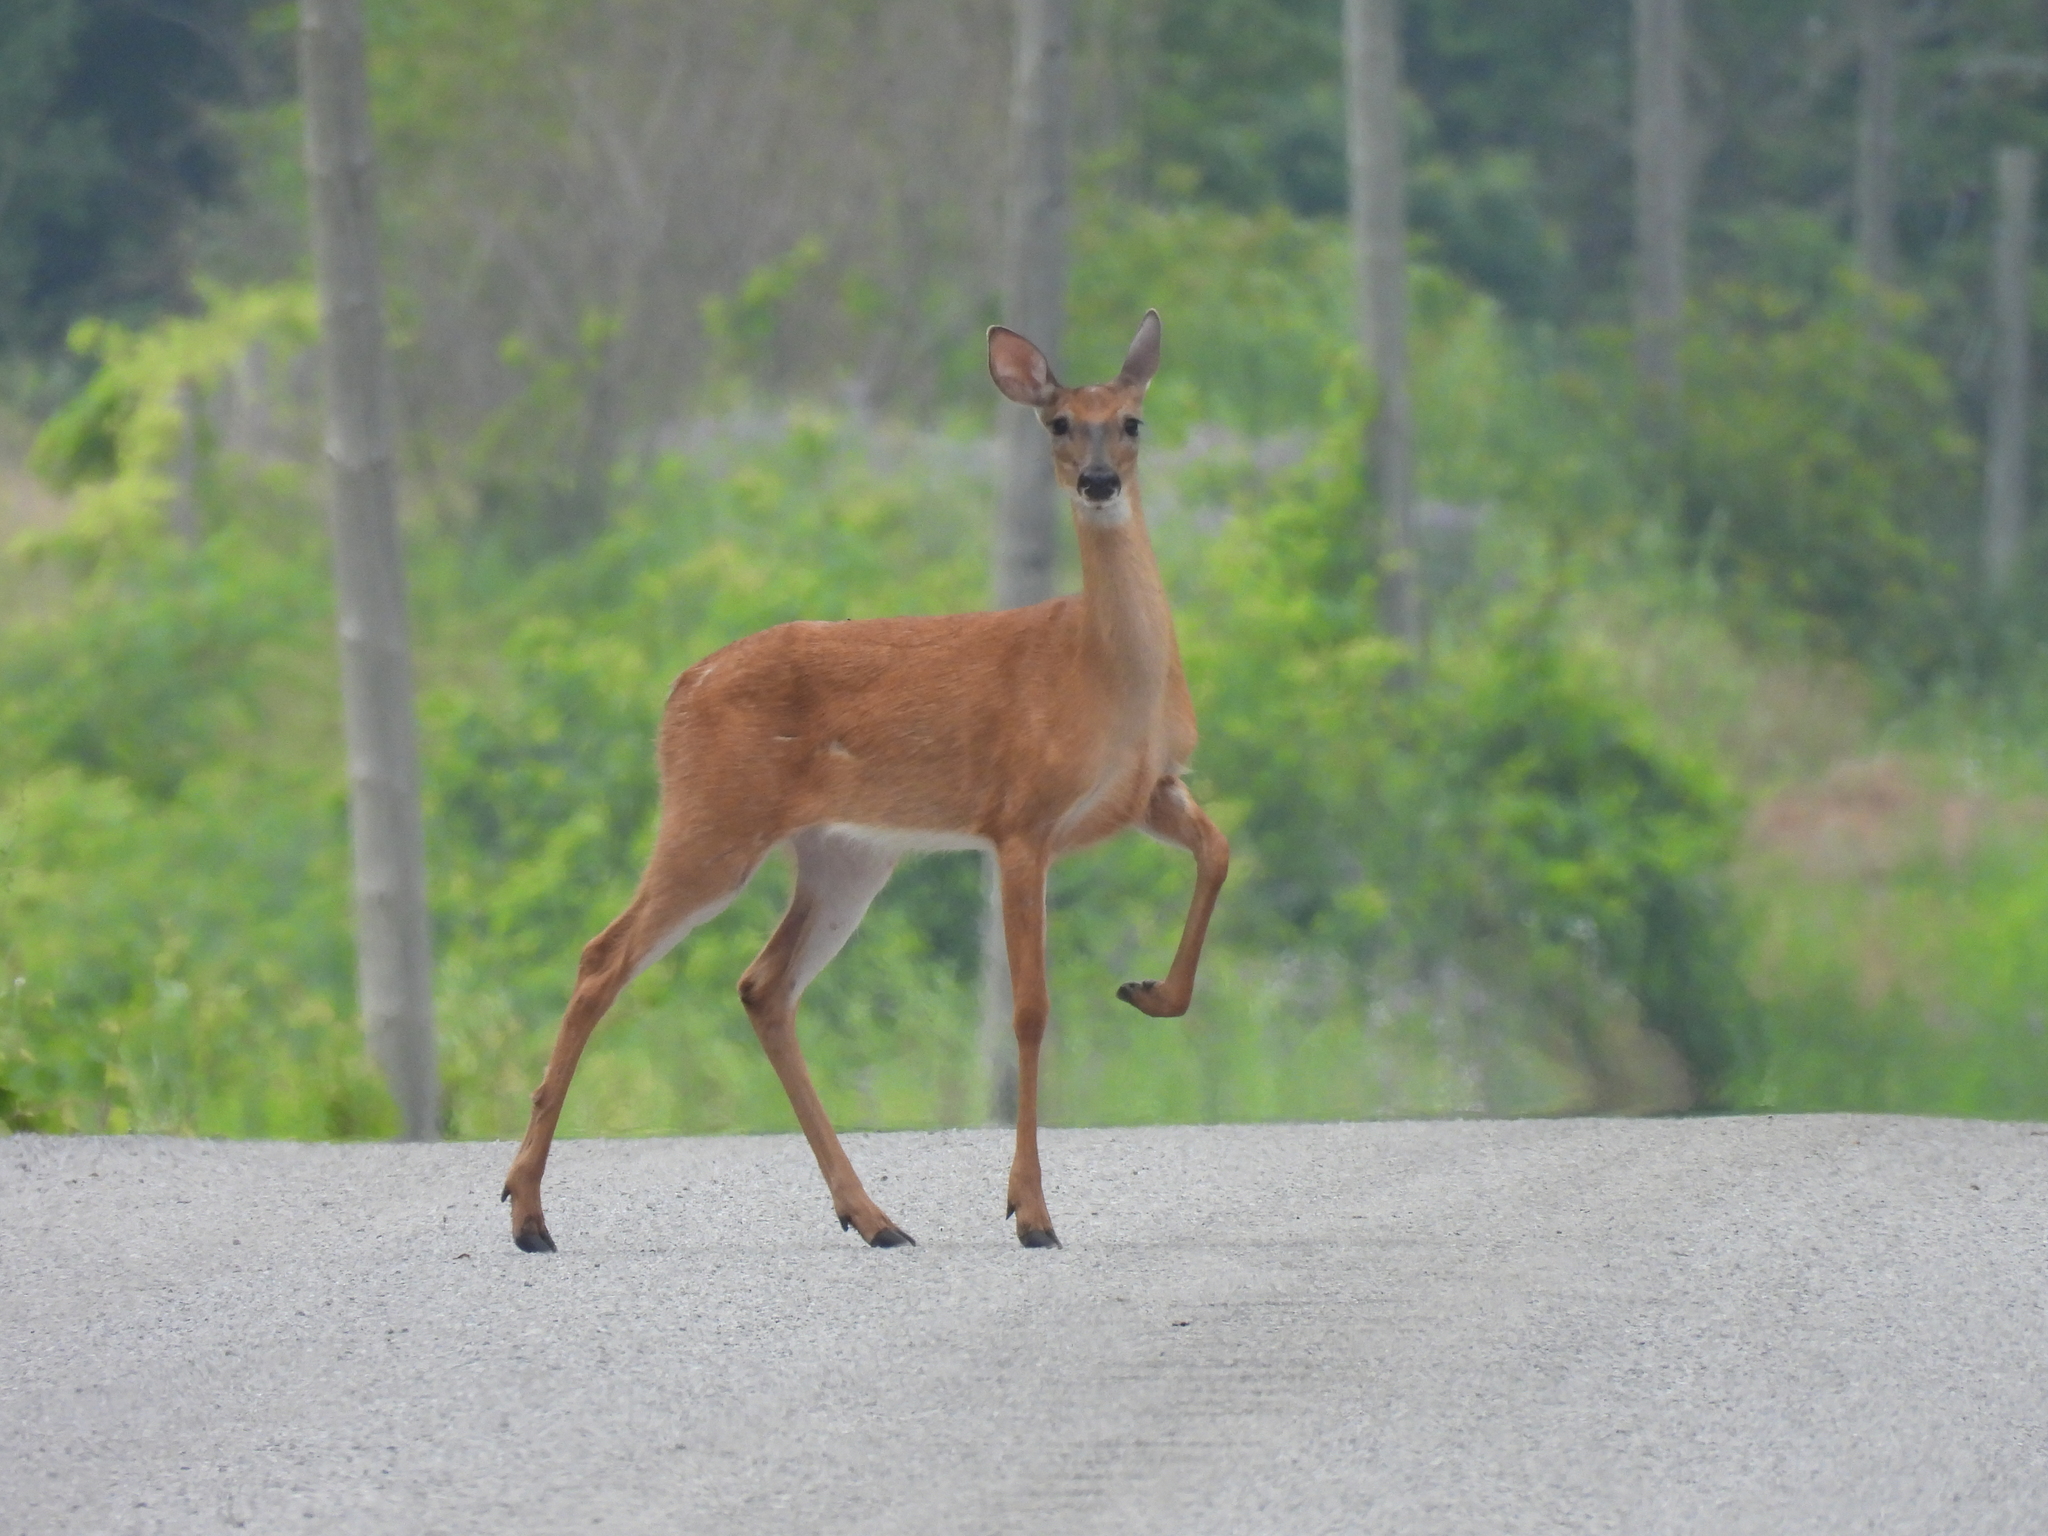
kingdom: Animalia
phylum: Chordata
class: Mammalia
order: Artiodactyla
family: Cervidae
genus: Odocoileus
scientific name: Odocoileus virginianus
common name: White-tailed deer
